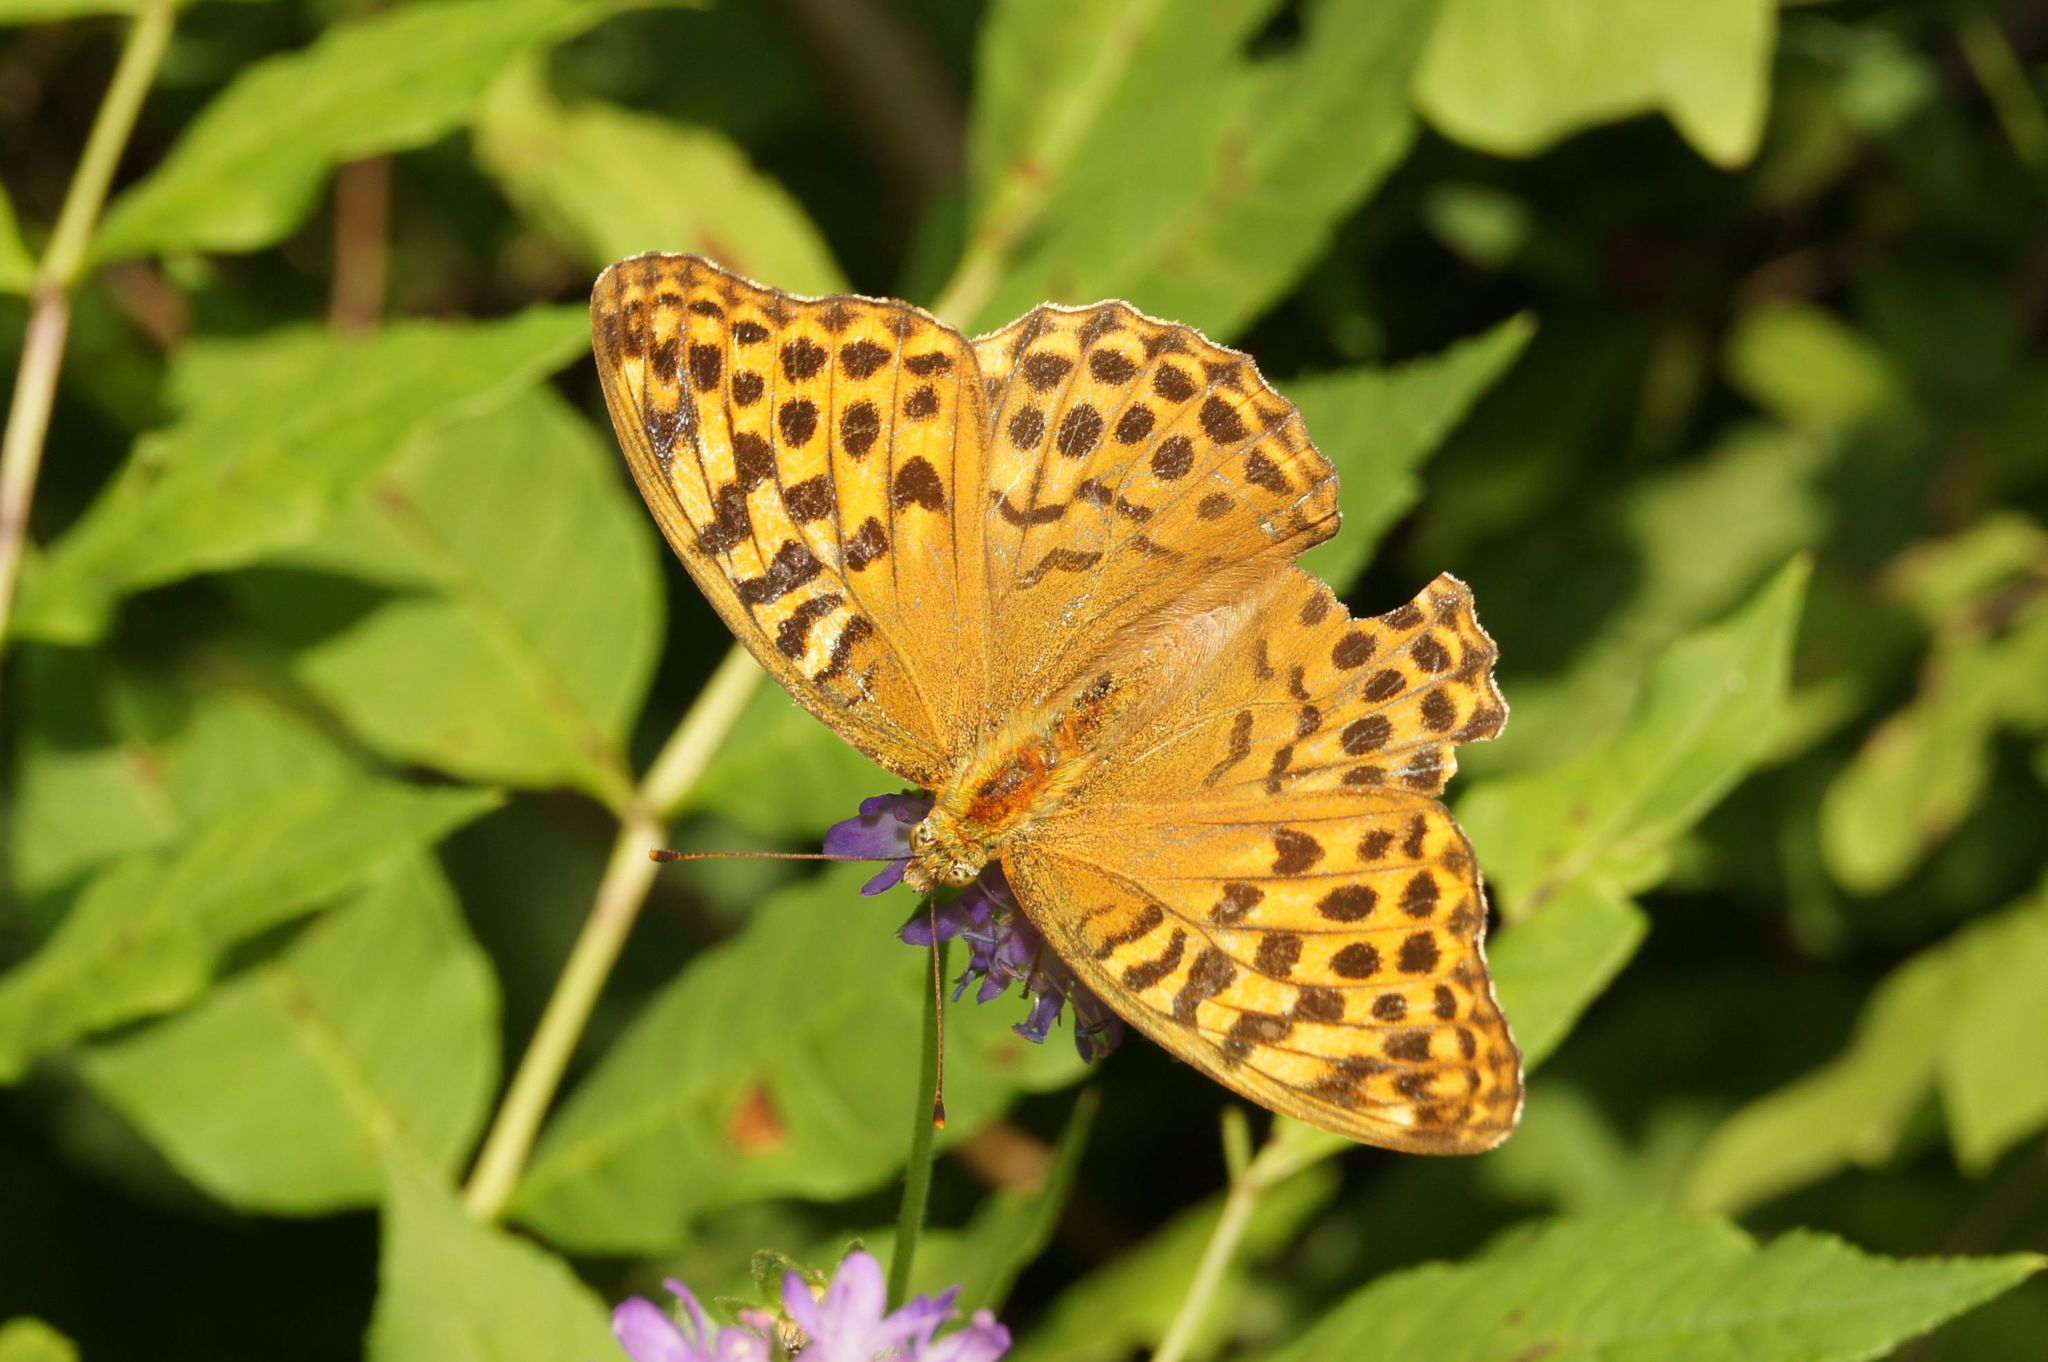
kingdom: Animalia
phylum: Arthropoda
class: Insecta
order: Lepidoptera
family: Nymphalidae
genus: Argynnis
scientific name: Argynnis paphia
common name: Silver-washed fritillary
